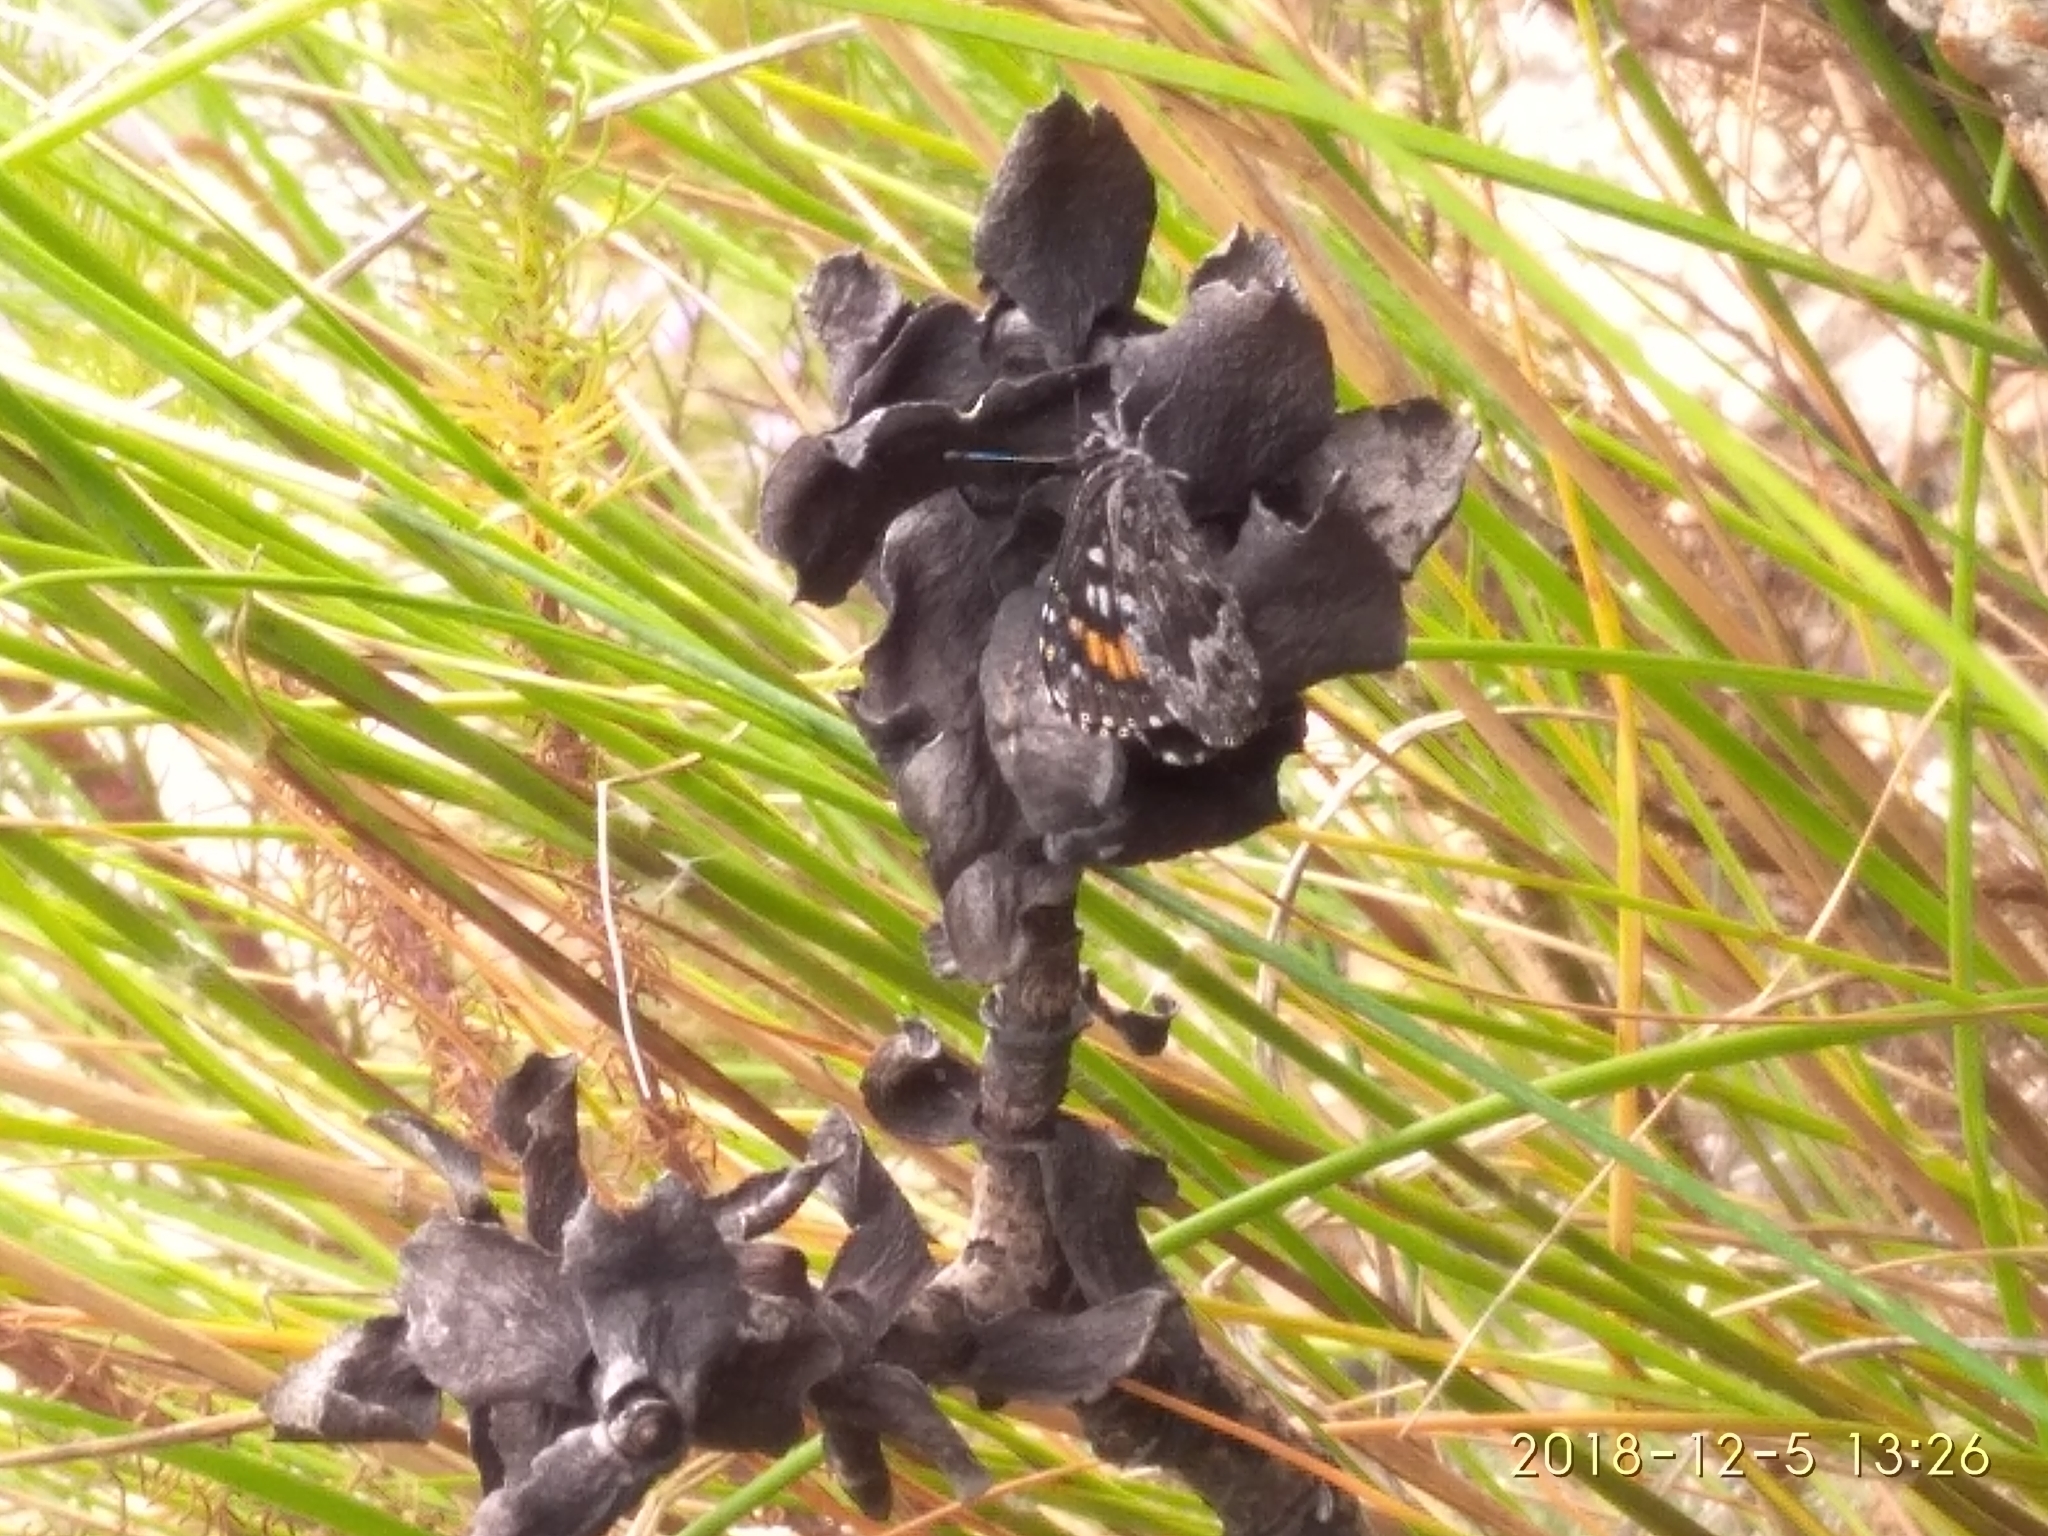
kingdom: Animalia
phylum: Arthropoda
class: Insecta
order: Lepidoptera
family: Lycaenidae
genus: Durbaniopsis
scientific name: Durbaniopsis saga
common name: Boland rocksitter
